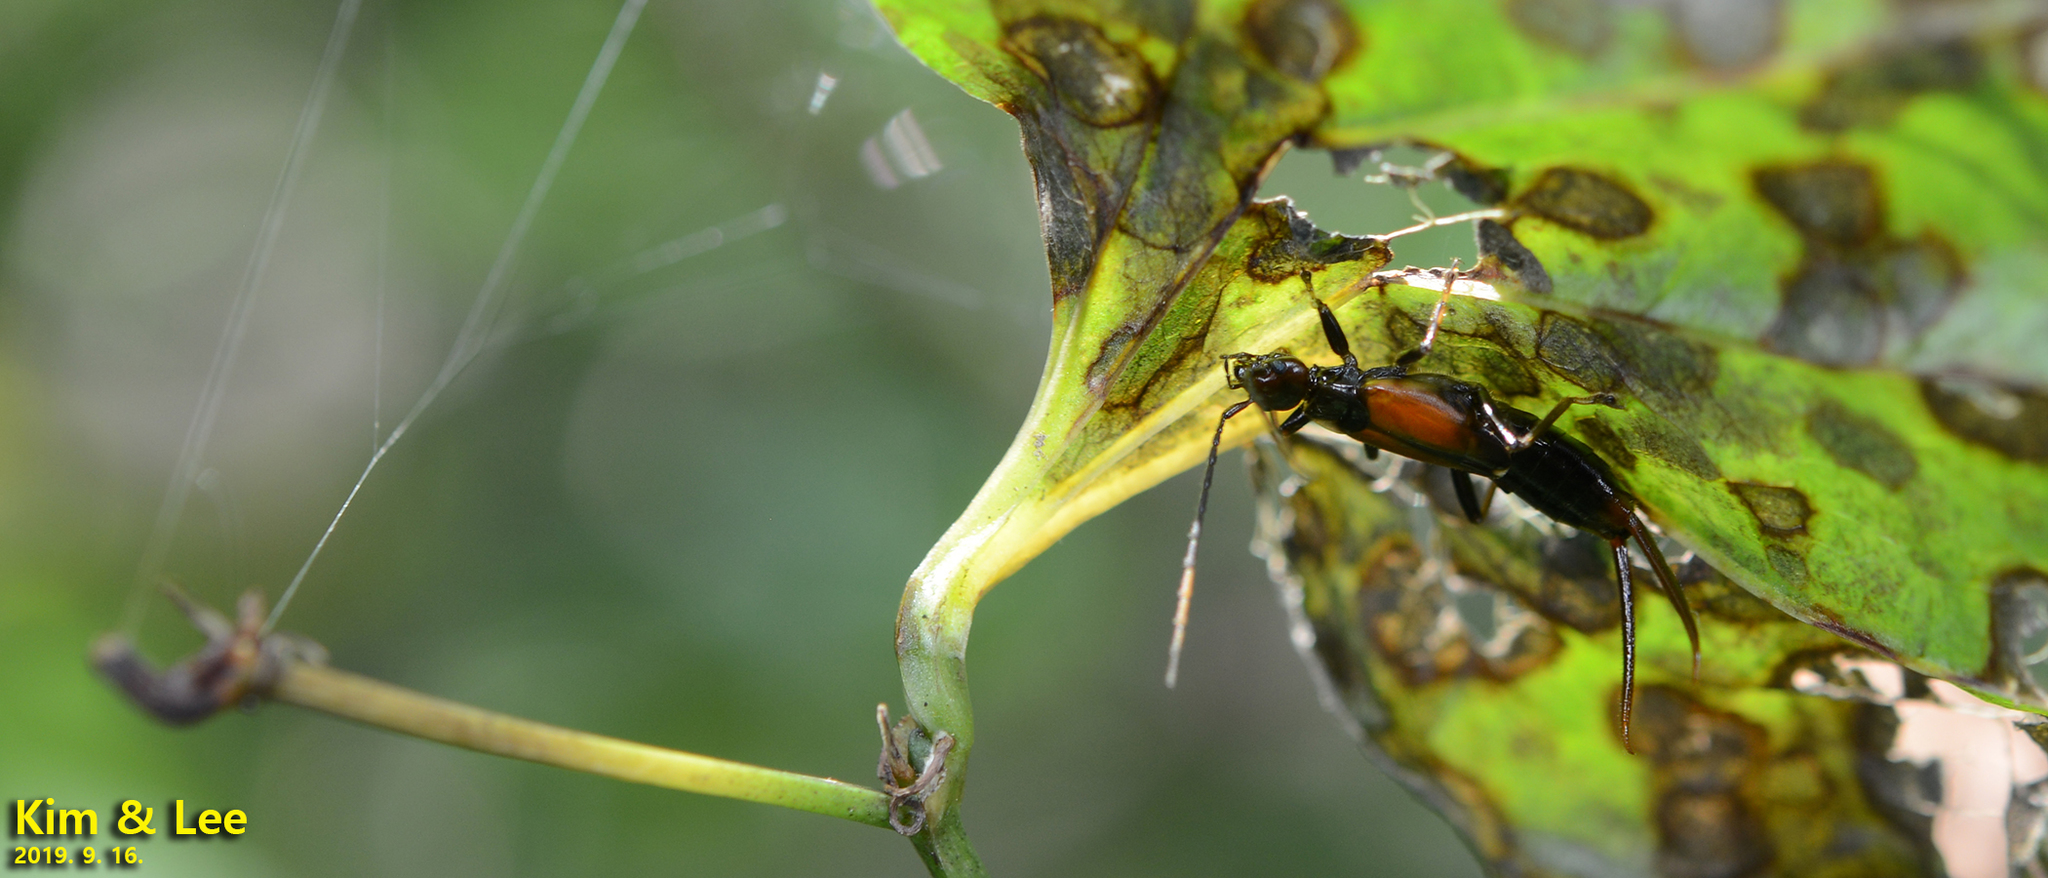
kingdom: Animalia
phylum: Arthropoda
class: Insecta
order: Dermaptera
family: Forficulidae
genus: Timomenus
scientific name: Timomenus komarovi
